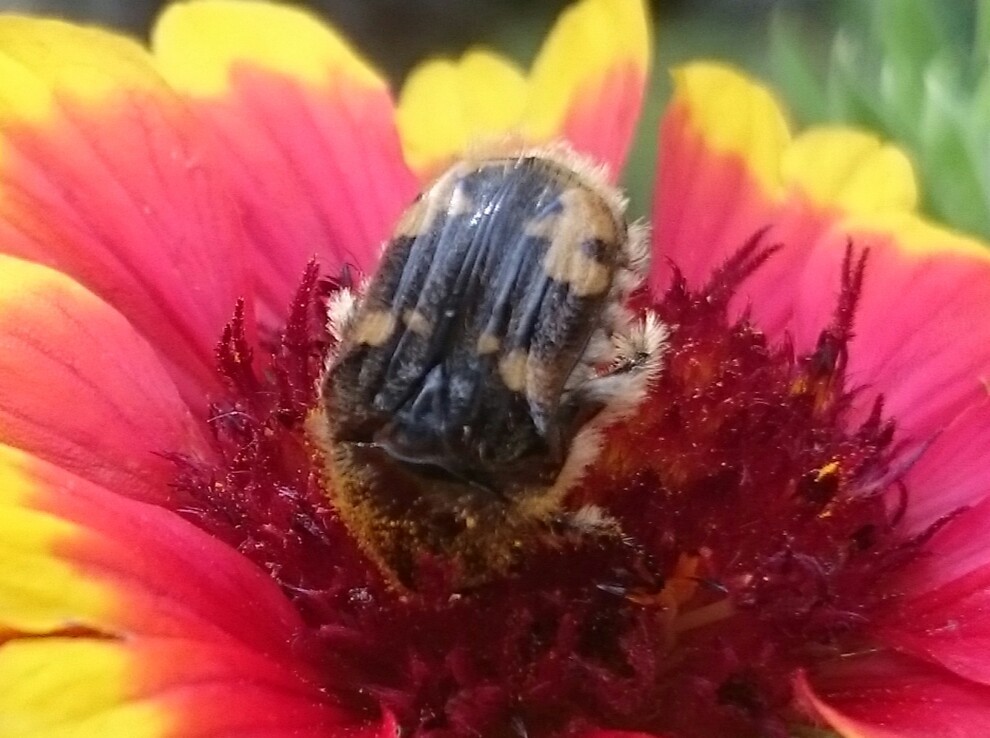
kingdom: Animalia
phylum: Arthropoda
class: Insecta
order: Coleoptera
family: Scarabaeidae
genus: Euphoria
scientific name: Euphoria basalis
